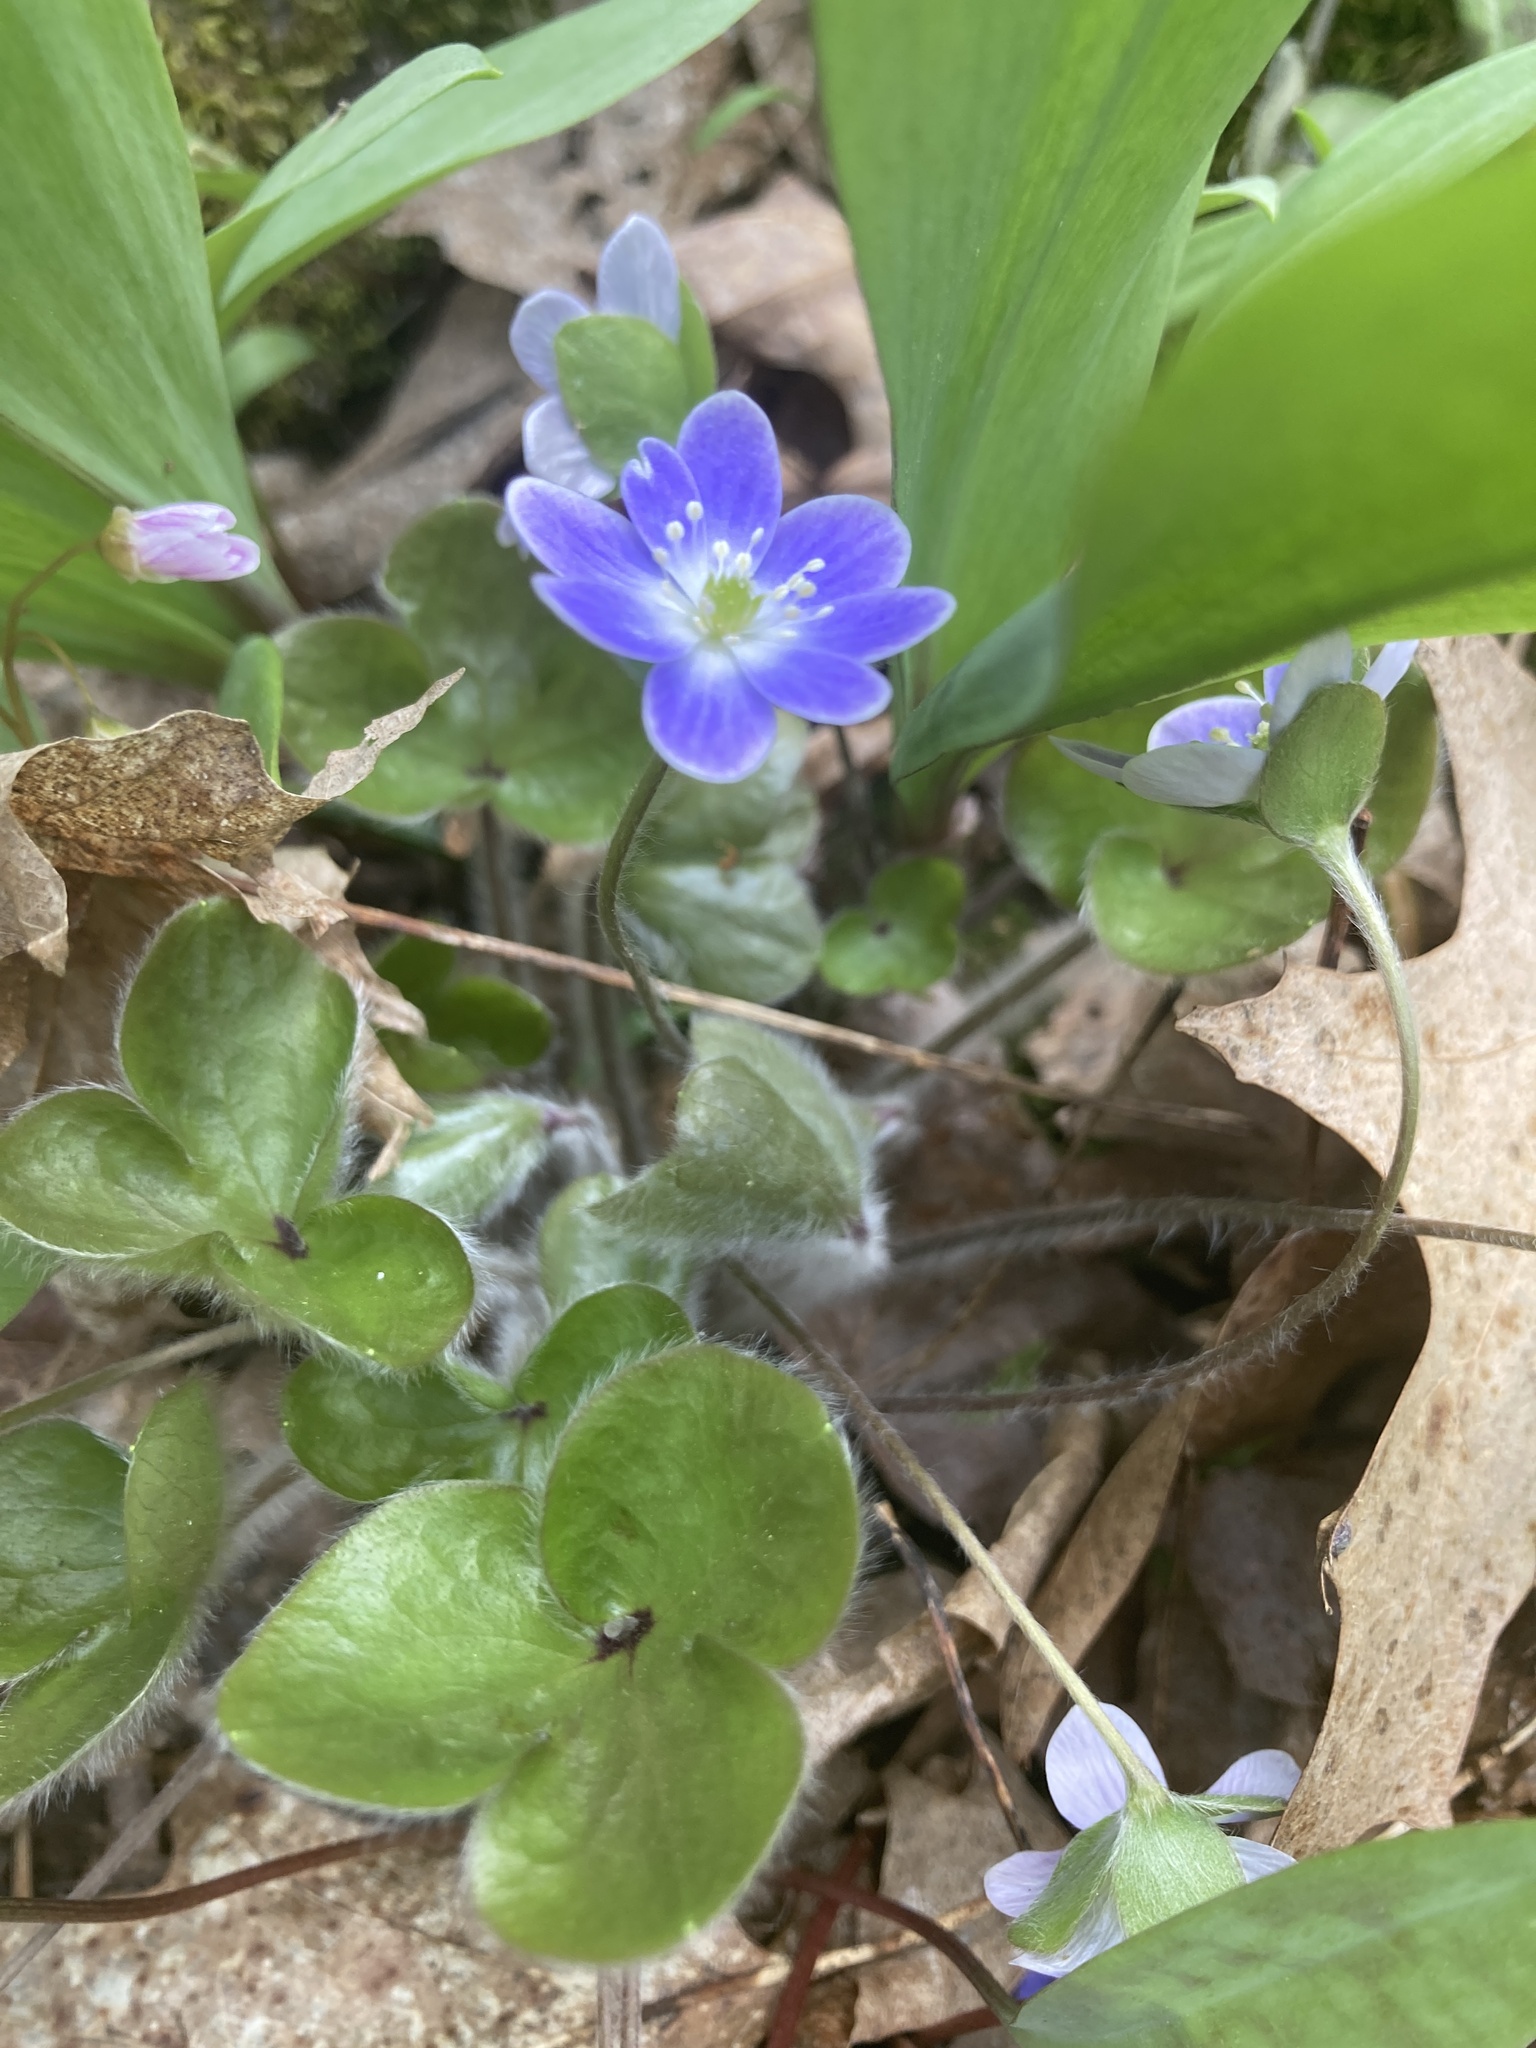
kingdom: Plantae
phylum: Tracheophyta
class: Magnoliopsida
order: Ranunculales
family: Ranunculaceae
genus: Hepatica
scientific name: Hepatica americana
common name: American hepatica
